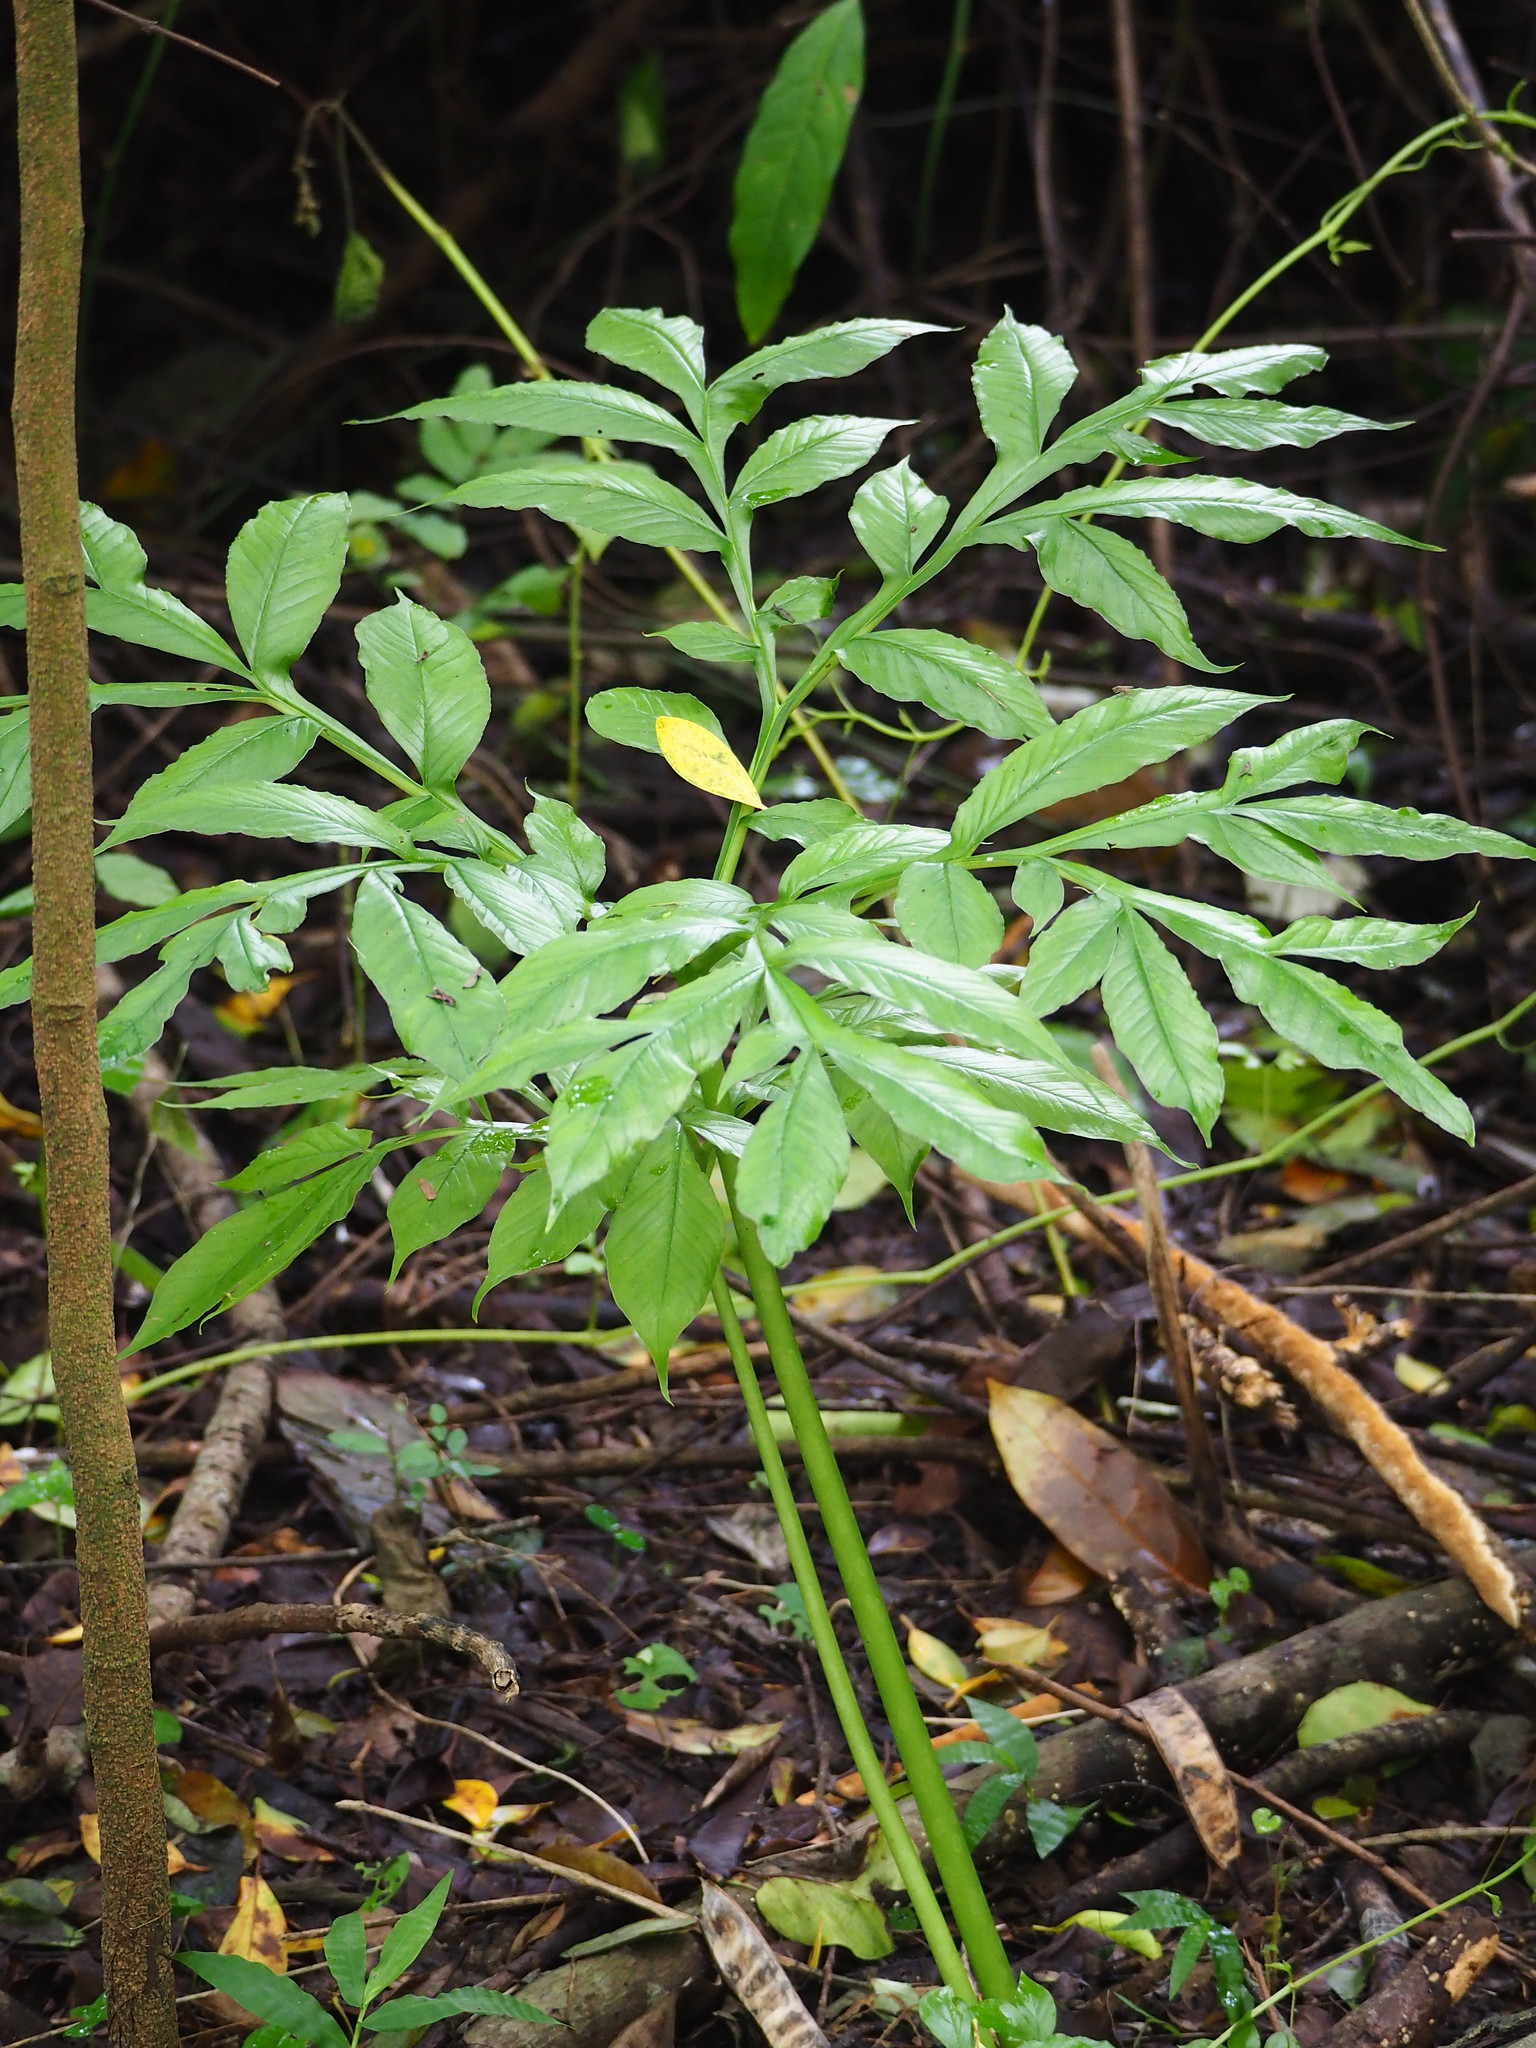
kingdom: Plantae
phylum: Tracheophyta
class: Liliopsida
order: Alismatales
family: Araceae
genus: Amorphophallus
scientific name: Amorphophallus henryi
